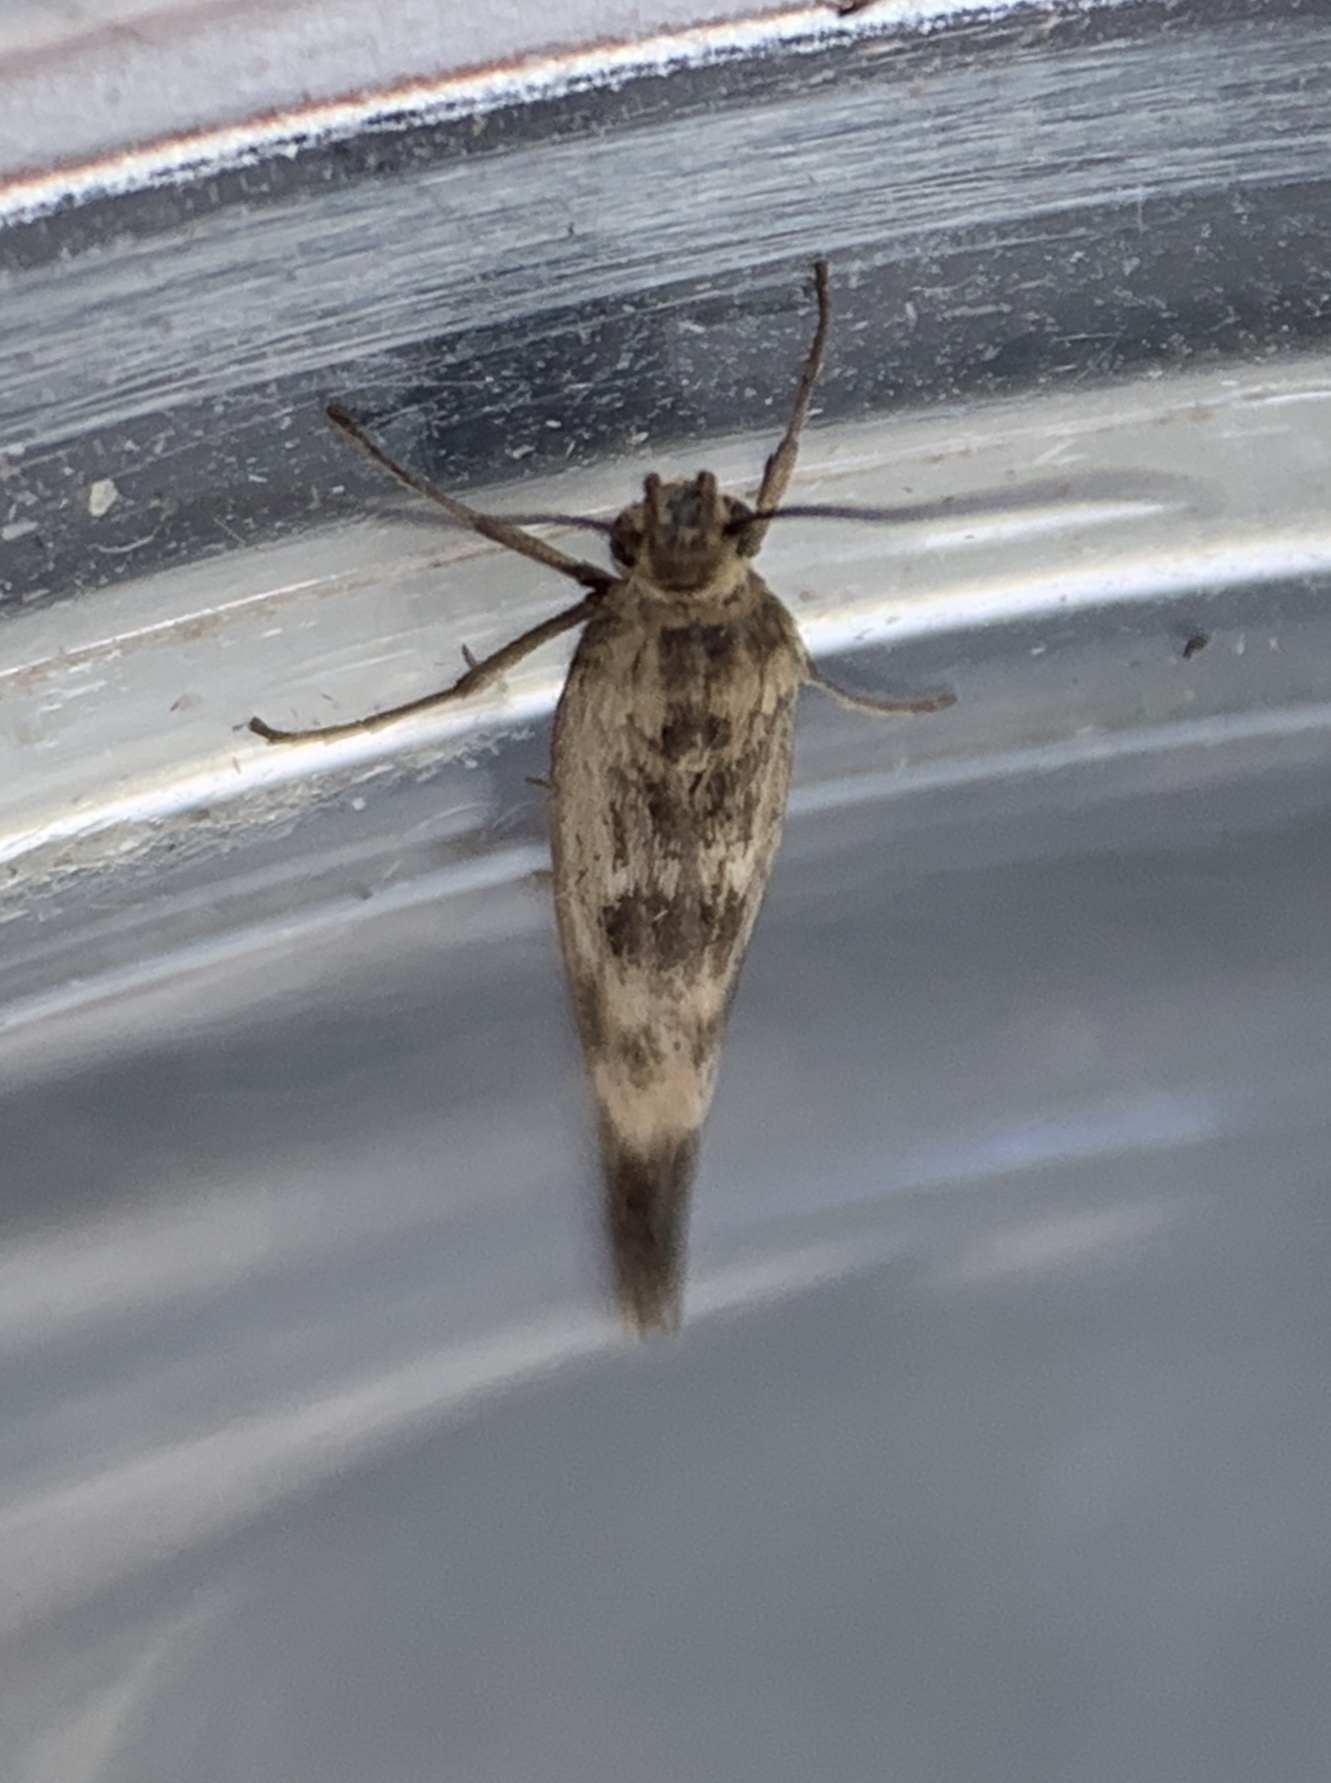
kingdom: Animalia
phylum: Arthropoda
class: Insecta
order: Lepidoptera
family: Scythrididae
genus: Scythris
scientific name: Scythris limbella
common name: Goosefoot owlet
